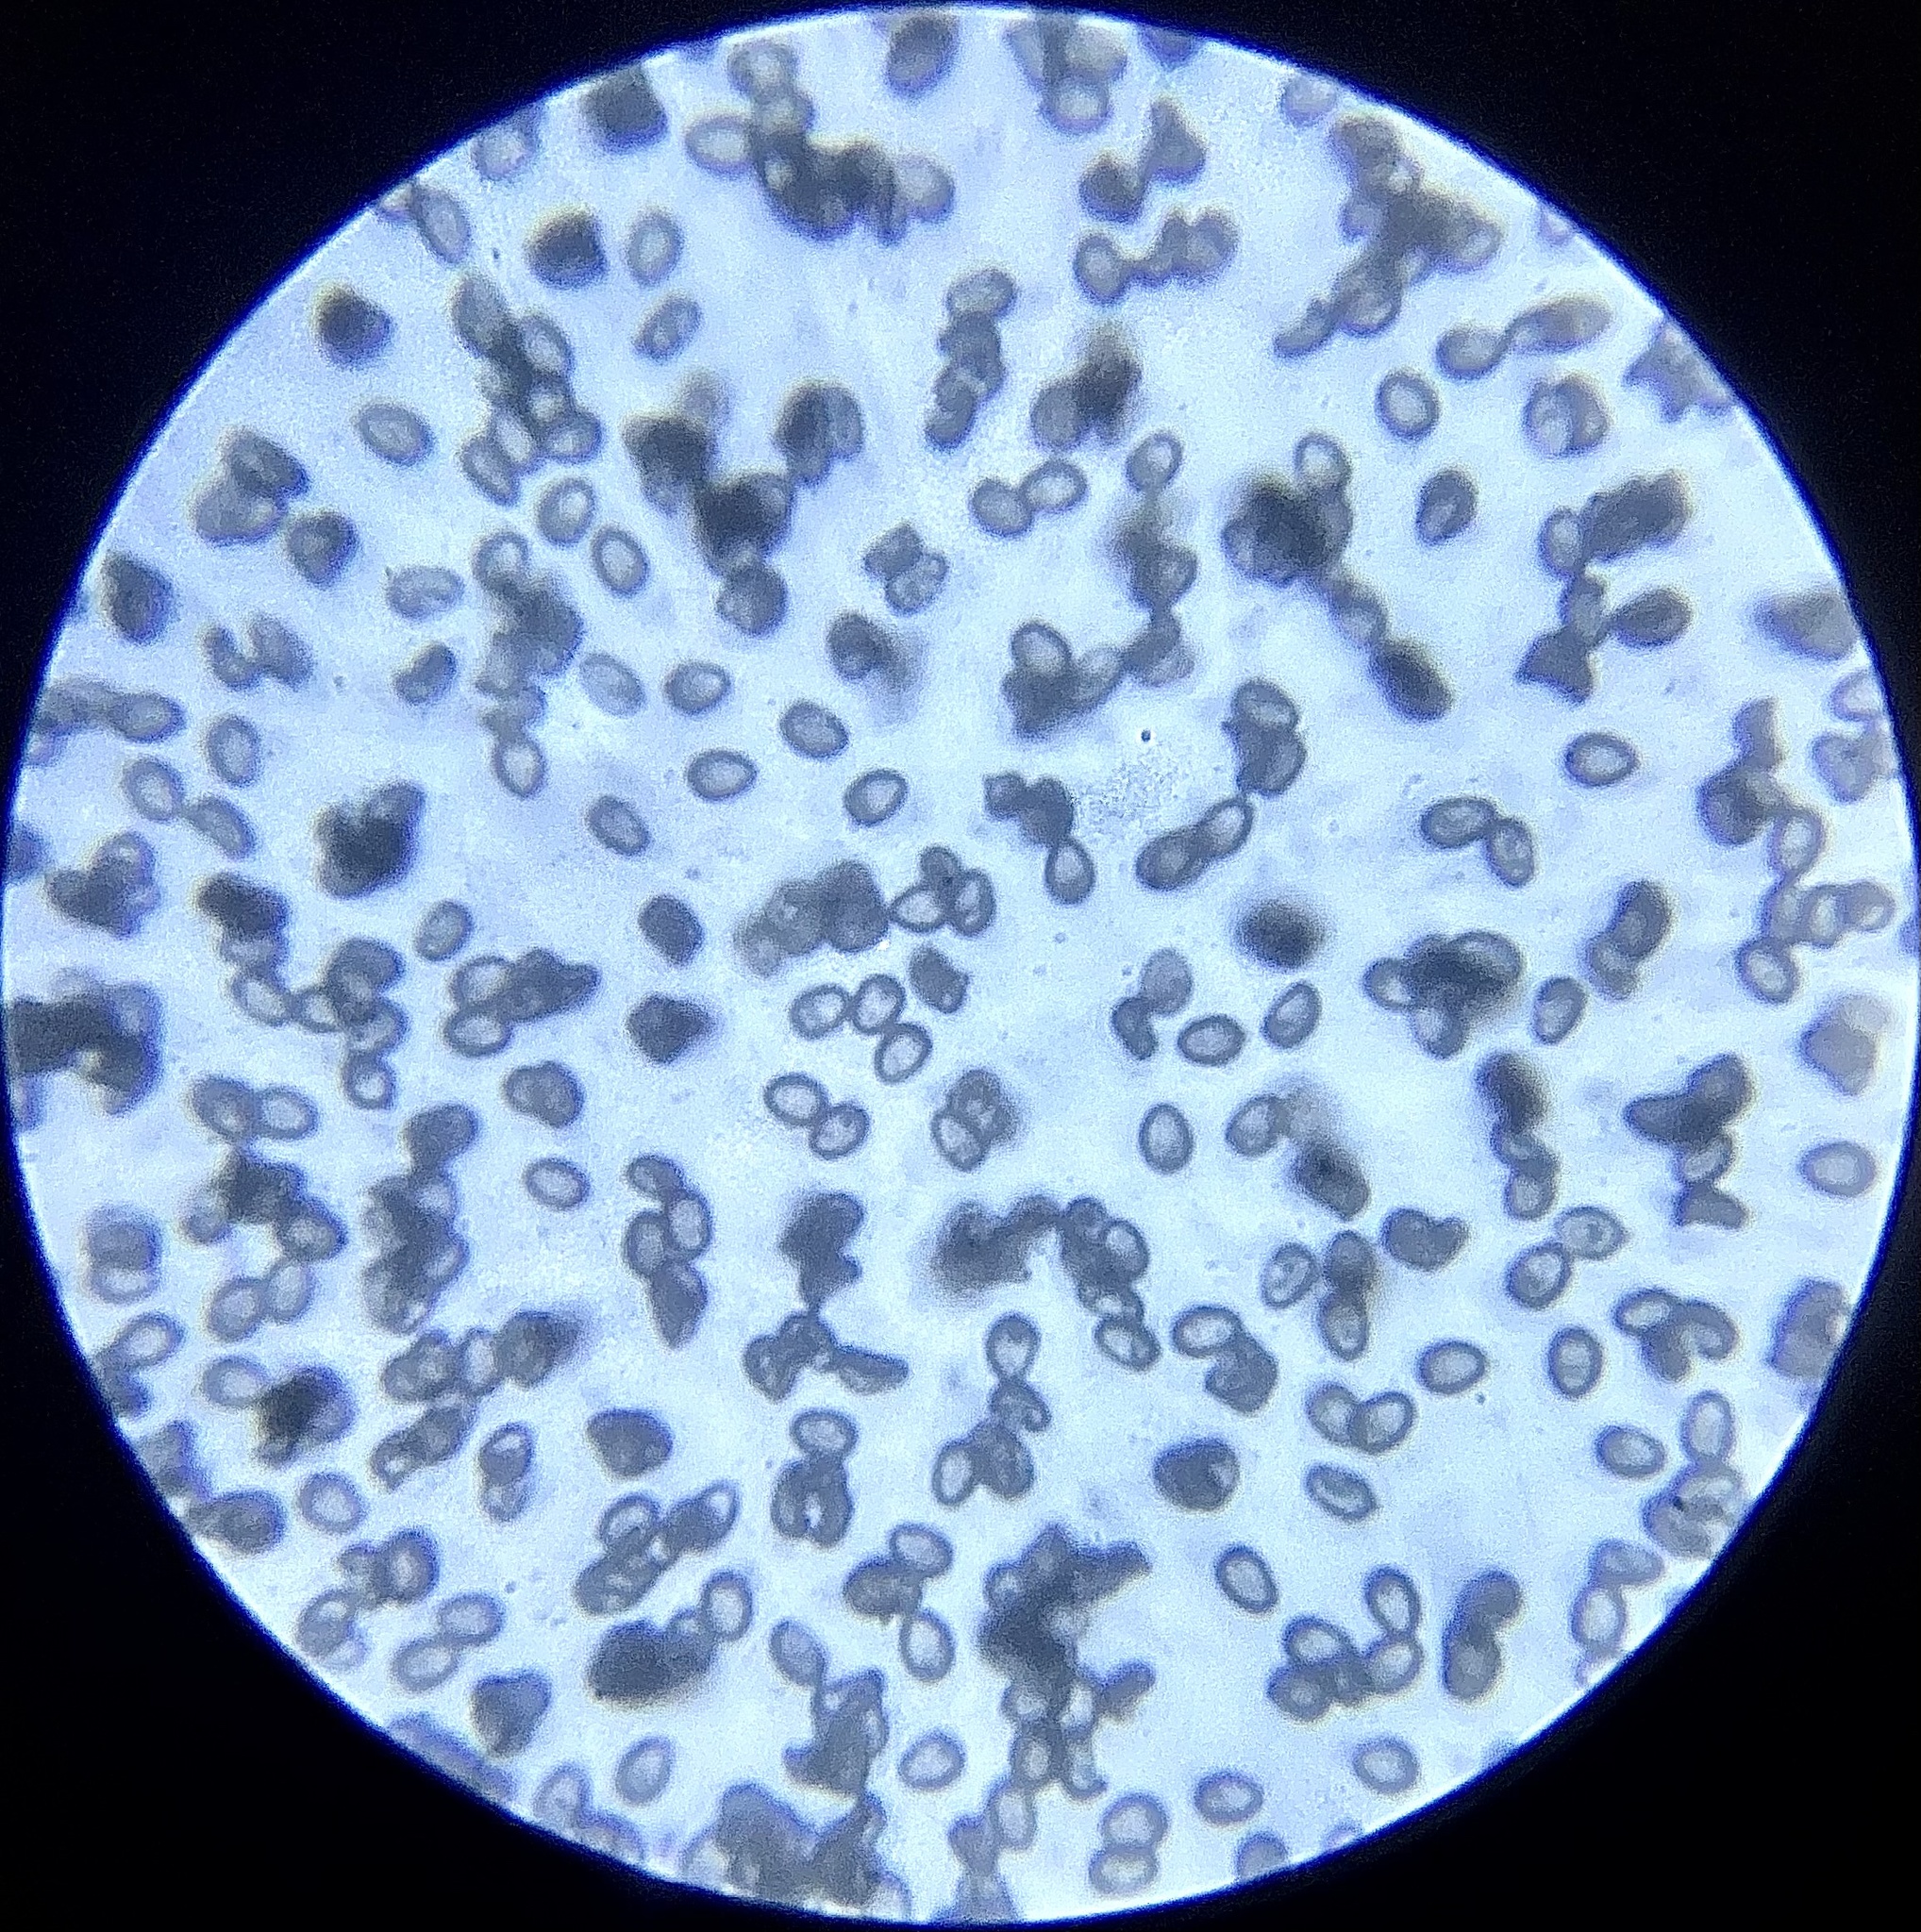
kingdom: Fungi
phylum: Basidiomycota
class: Agaricomycetes
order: Agaricales
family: Agaricaceae
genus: Agaricus
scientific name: Agaricus campestris
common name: Field mushroom
